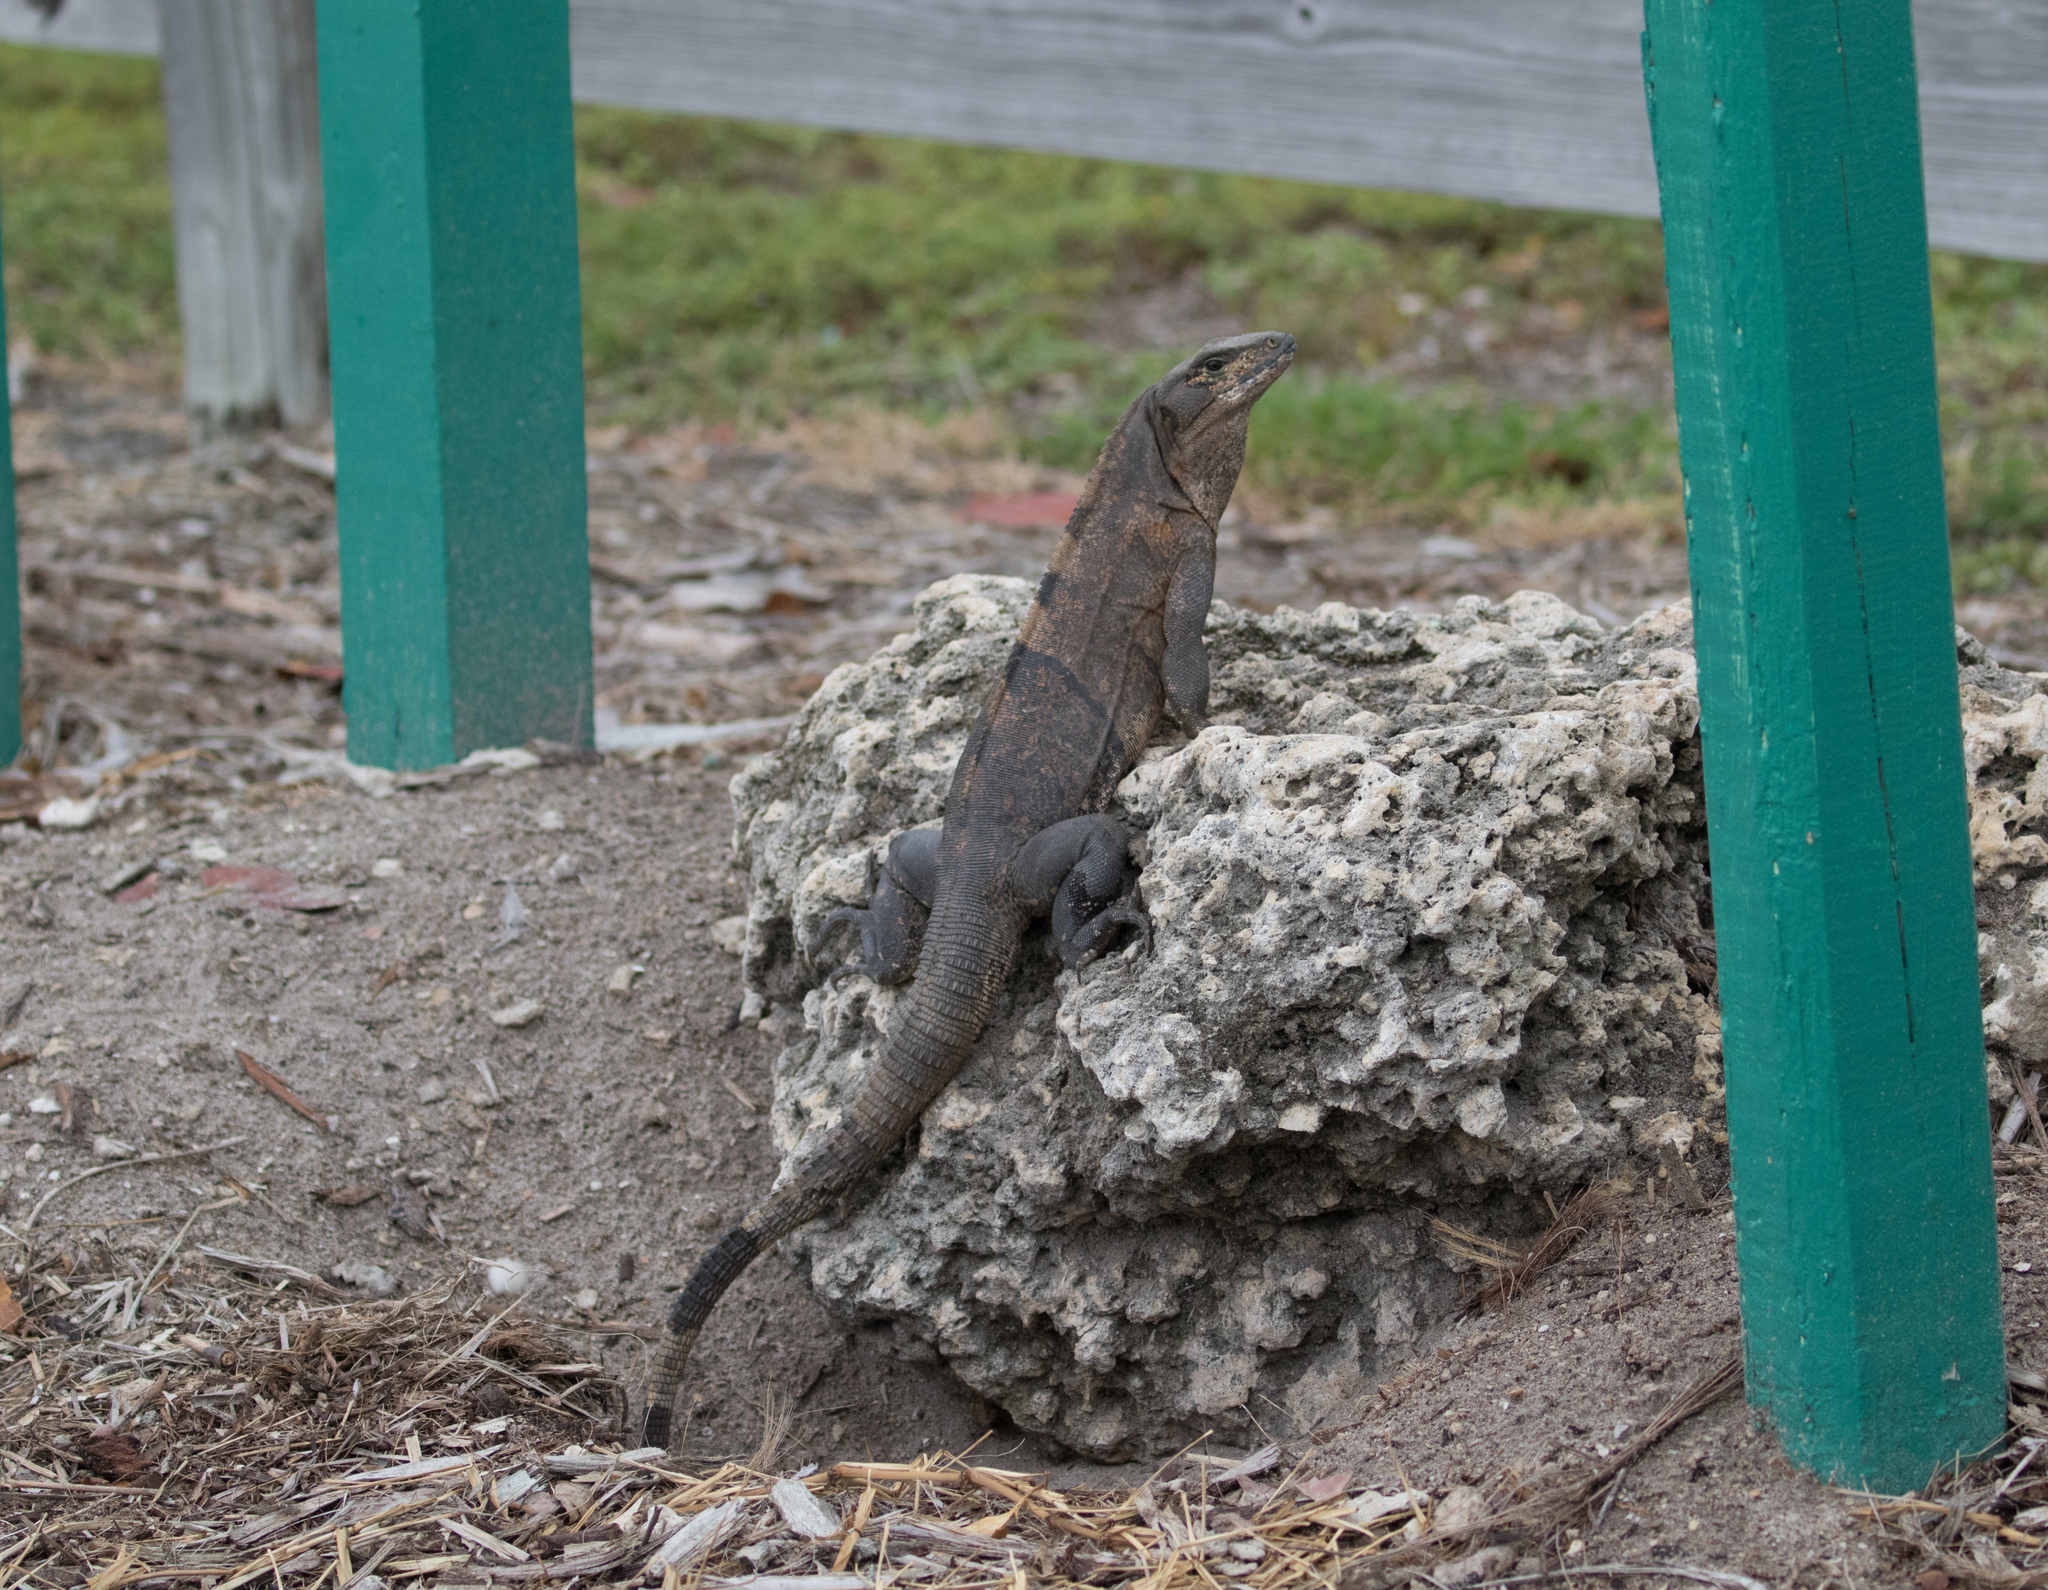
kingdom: Animalia
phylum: Chordata
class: Squamata
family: Iguanidae
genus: Ctenosaura
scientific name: Ctenosaura similis
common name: Black spiny-tailed iguana
